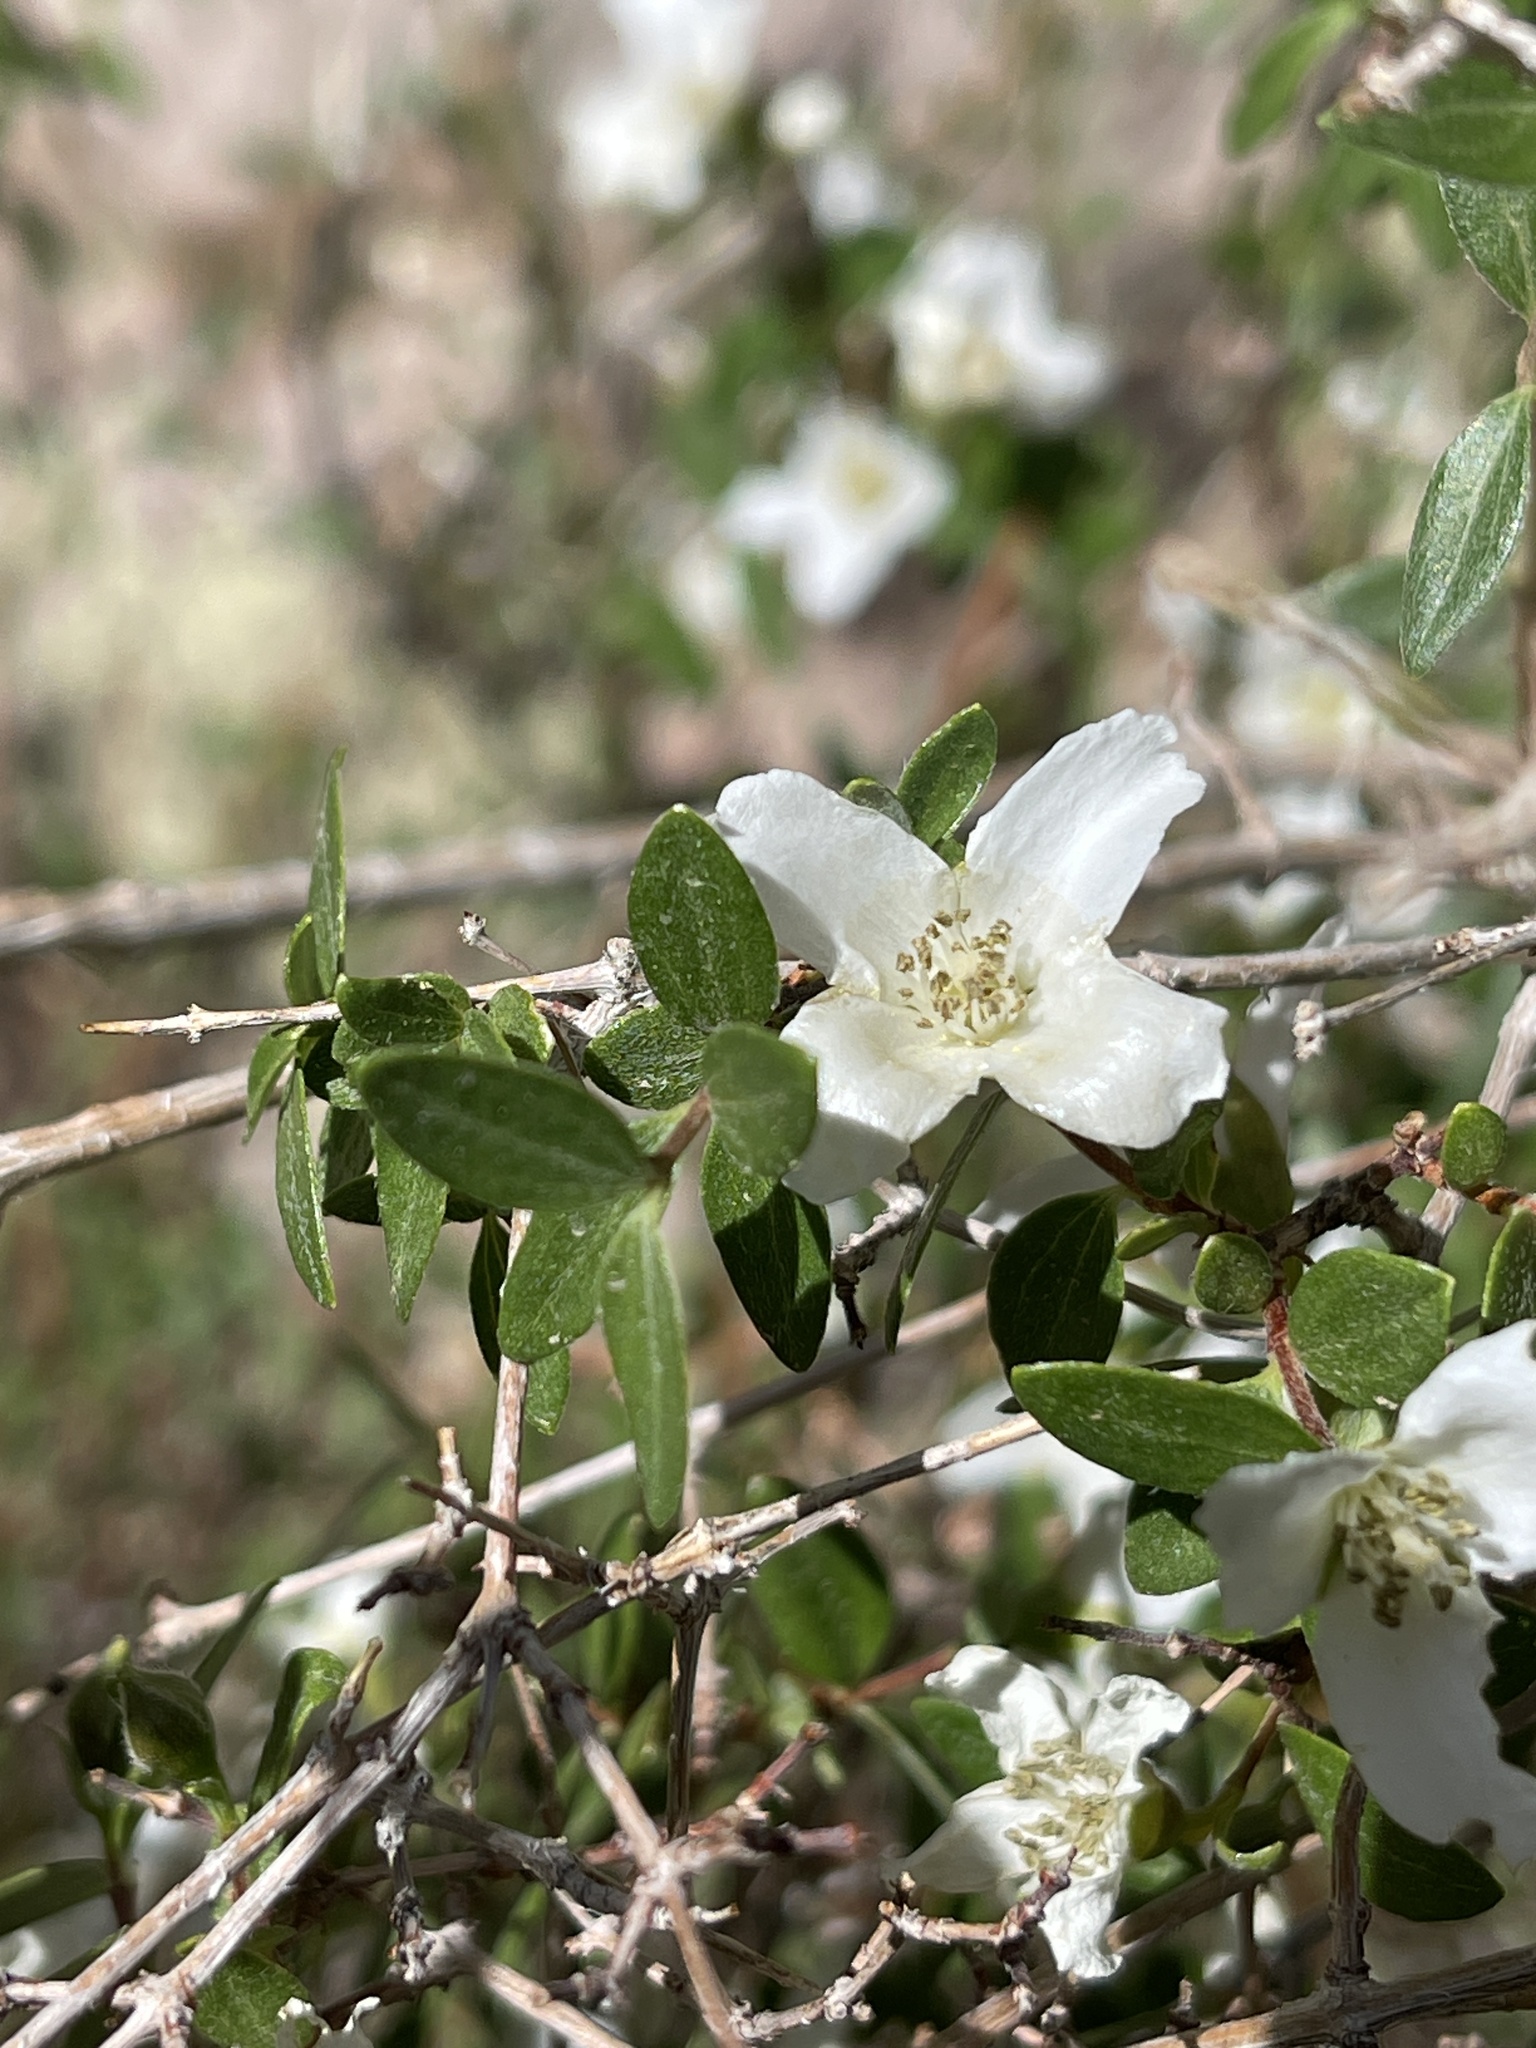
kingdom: Plantae
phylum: Tracheophyta
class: Magnoliopsida
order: Cornales
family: Hydrangeaceae
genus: Philadelphus
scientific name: Philadelphus microphyllus
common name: Desert mock orange
